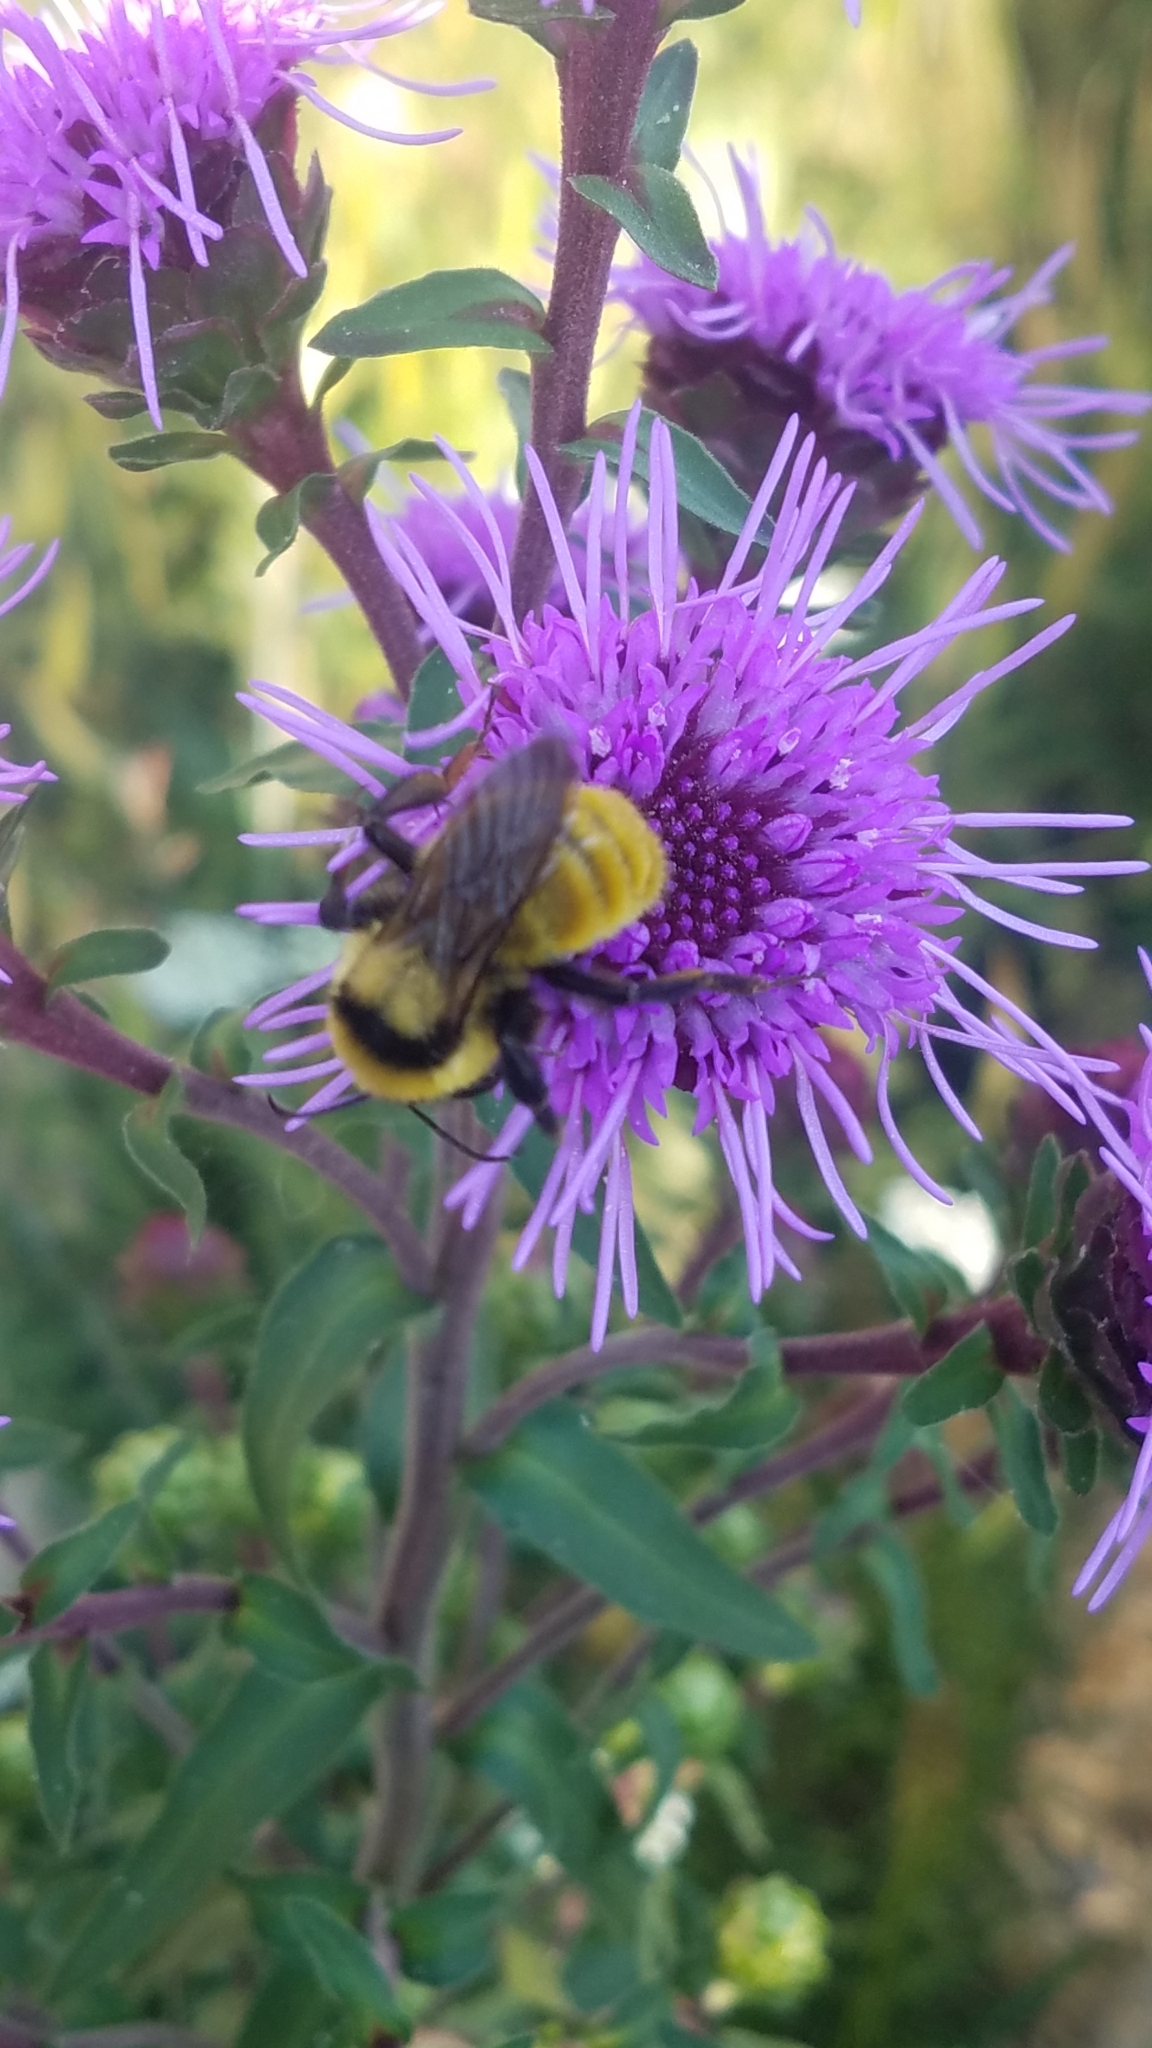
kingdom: Animalia
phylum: Arthropoda
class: Insecta
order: Hymenoptera
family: Apidae
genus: Bombus
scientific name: Bombus fervidus
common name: Yellow bumble bee
